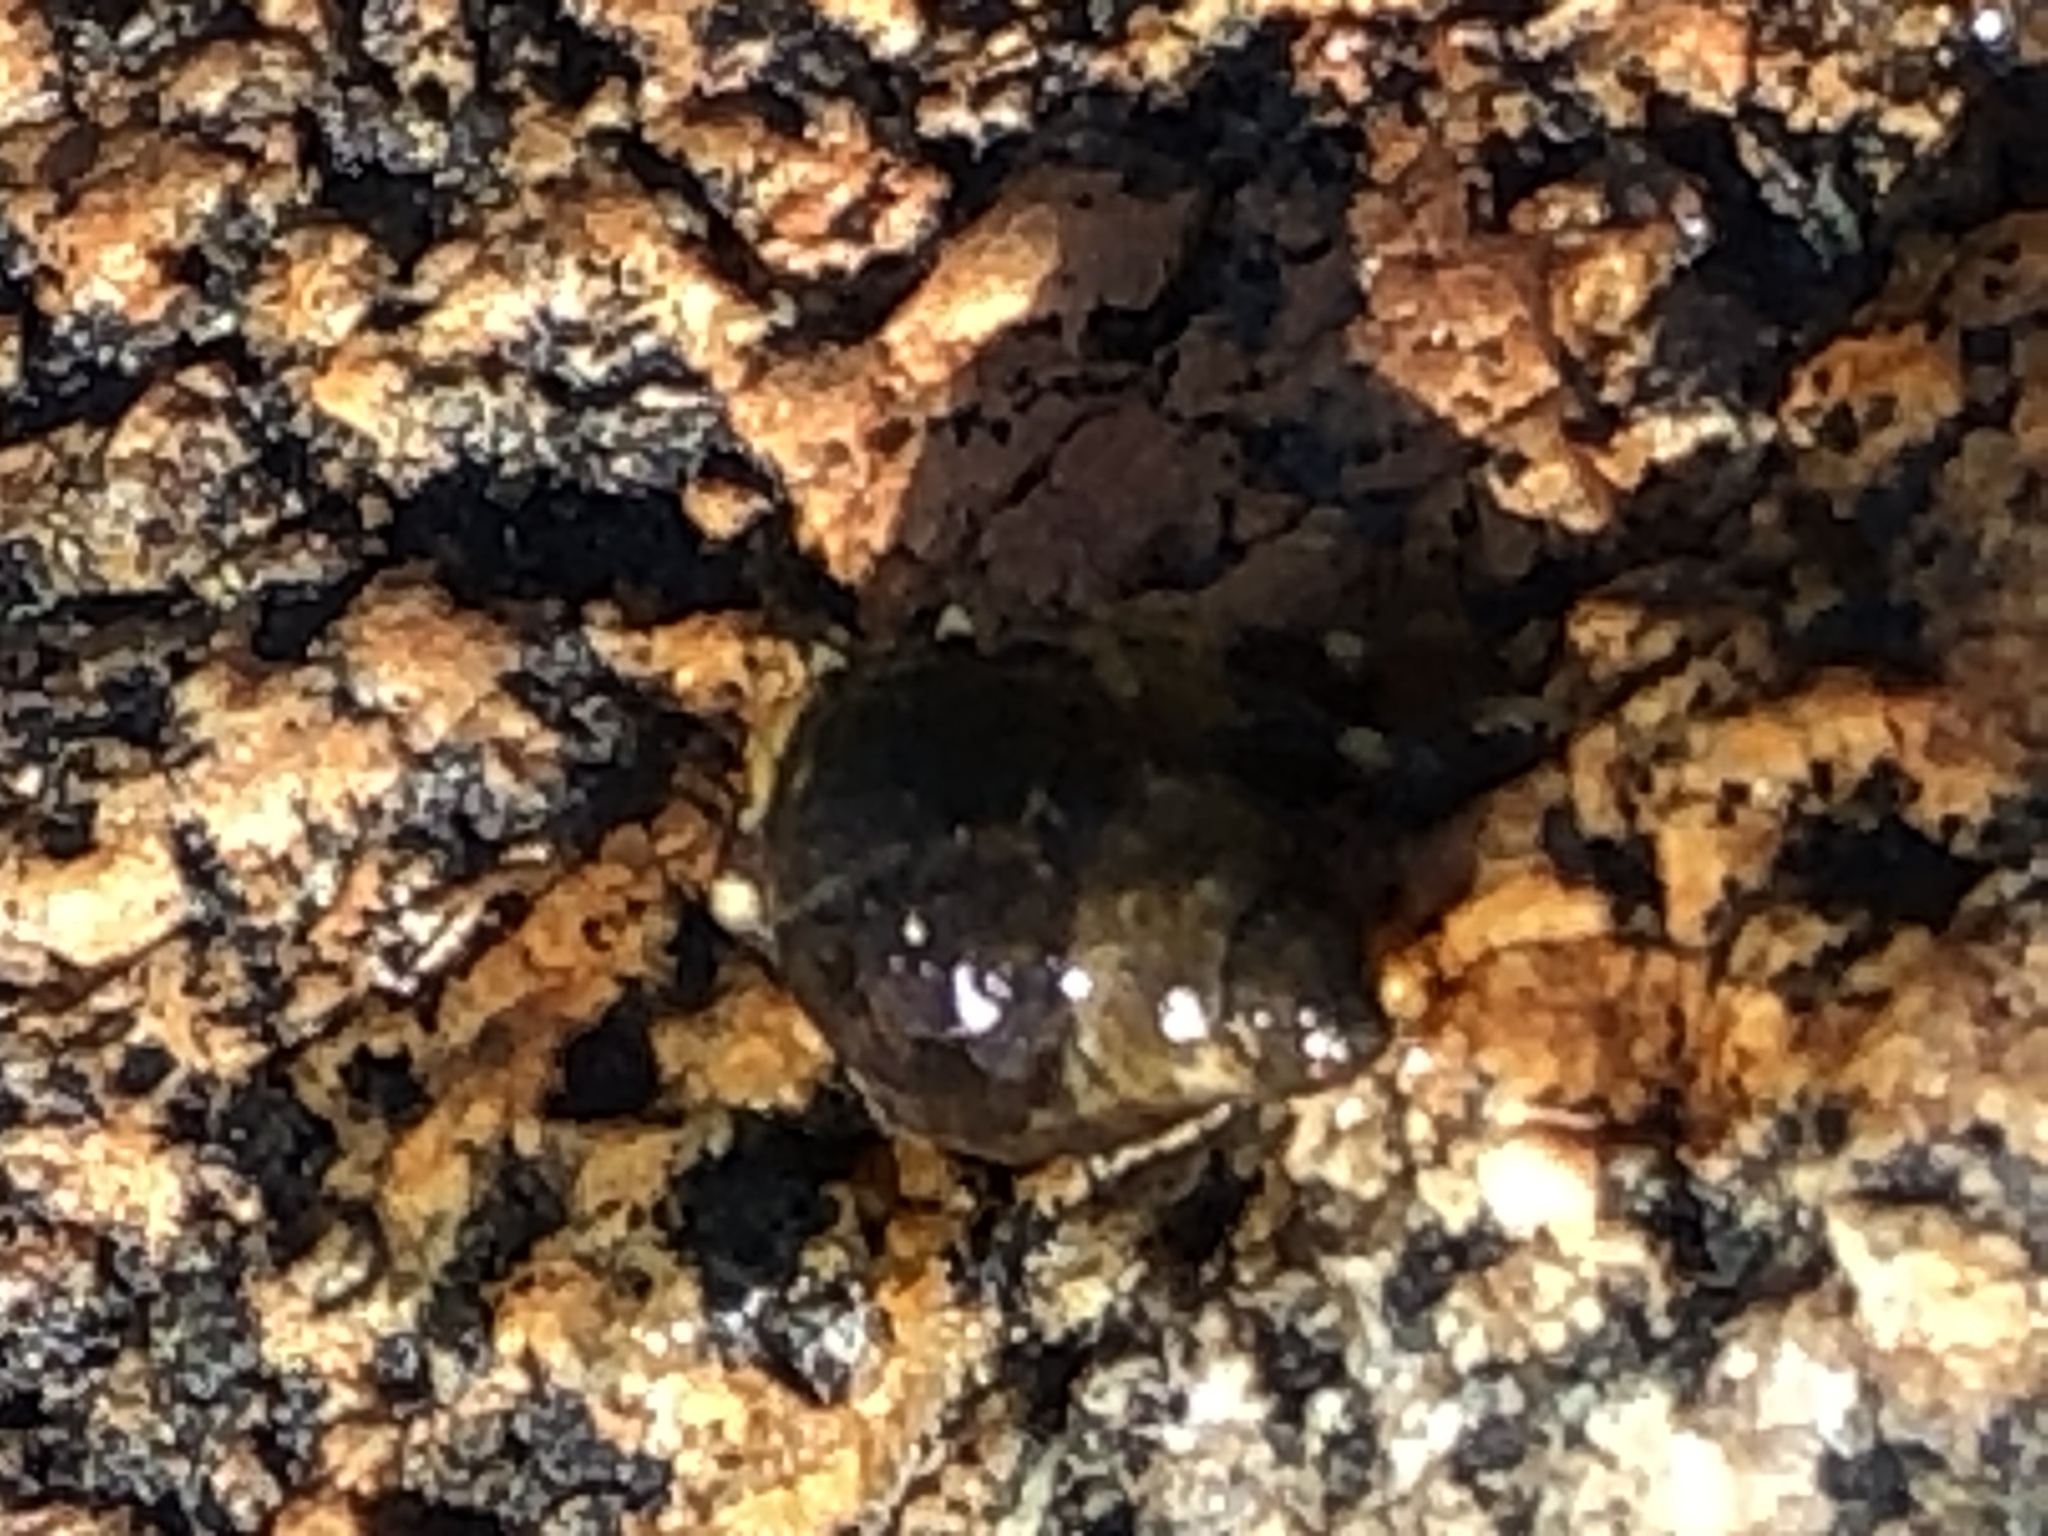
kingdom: Animalia
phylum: Arthropoda
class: Malacostraca
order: Decapoda
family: Paguridae
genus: Pagurus
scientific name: Pagurus hirsutiusculus
